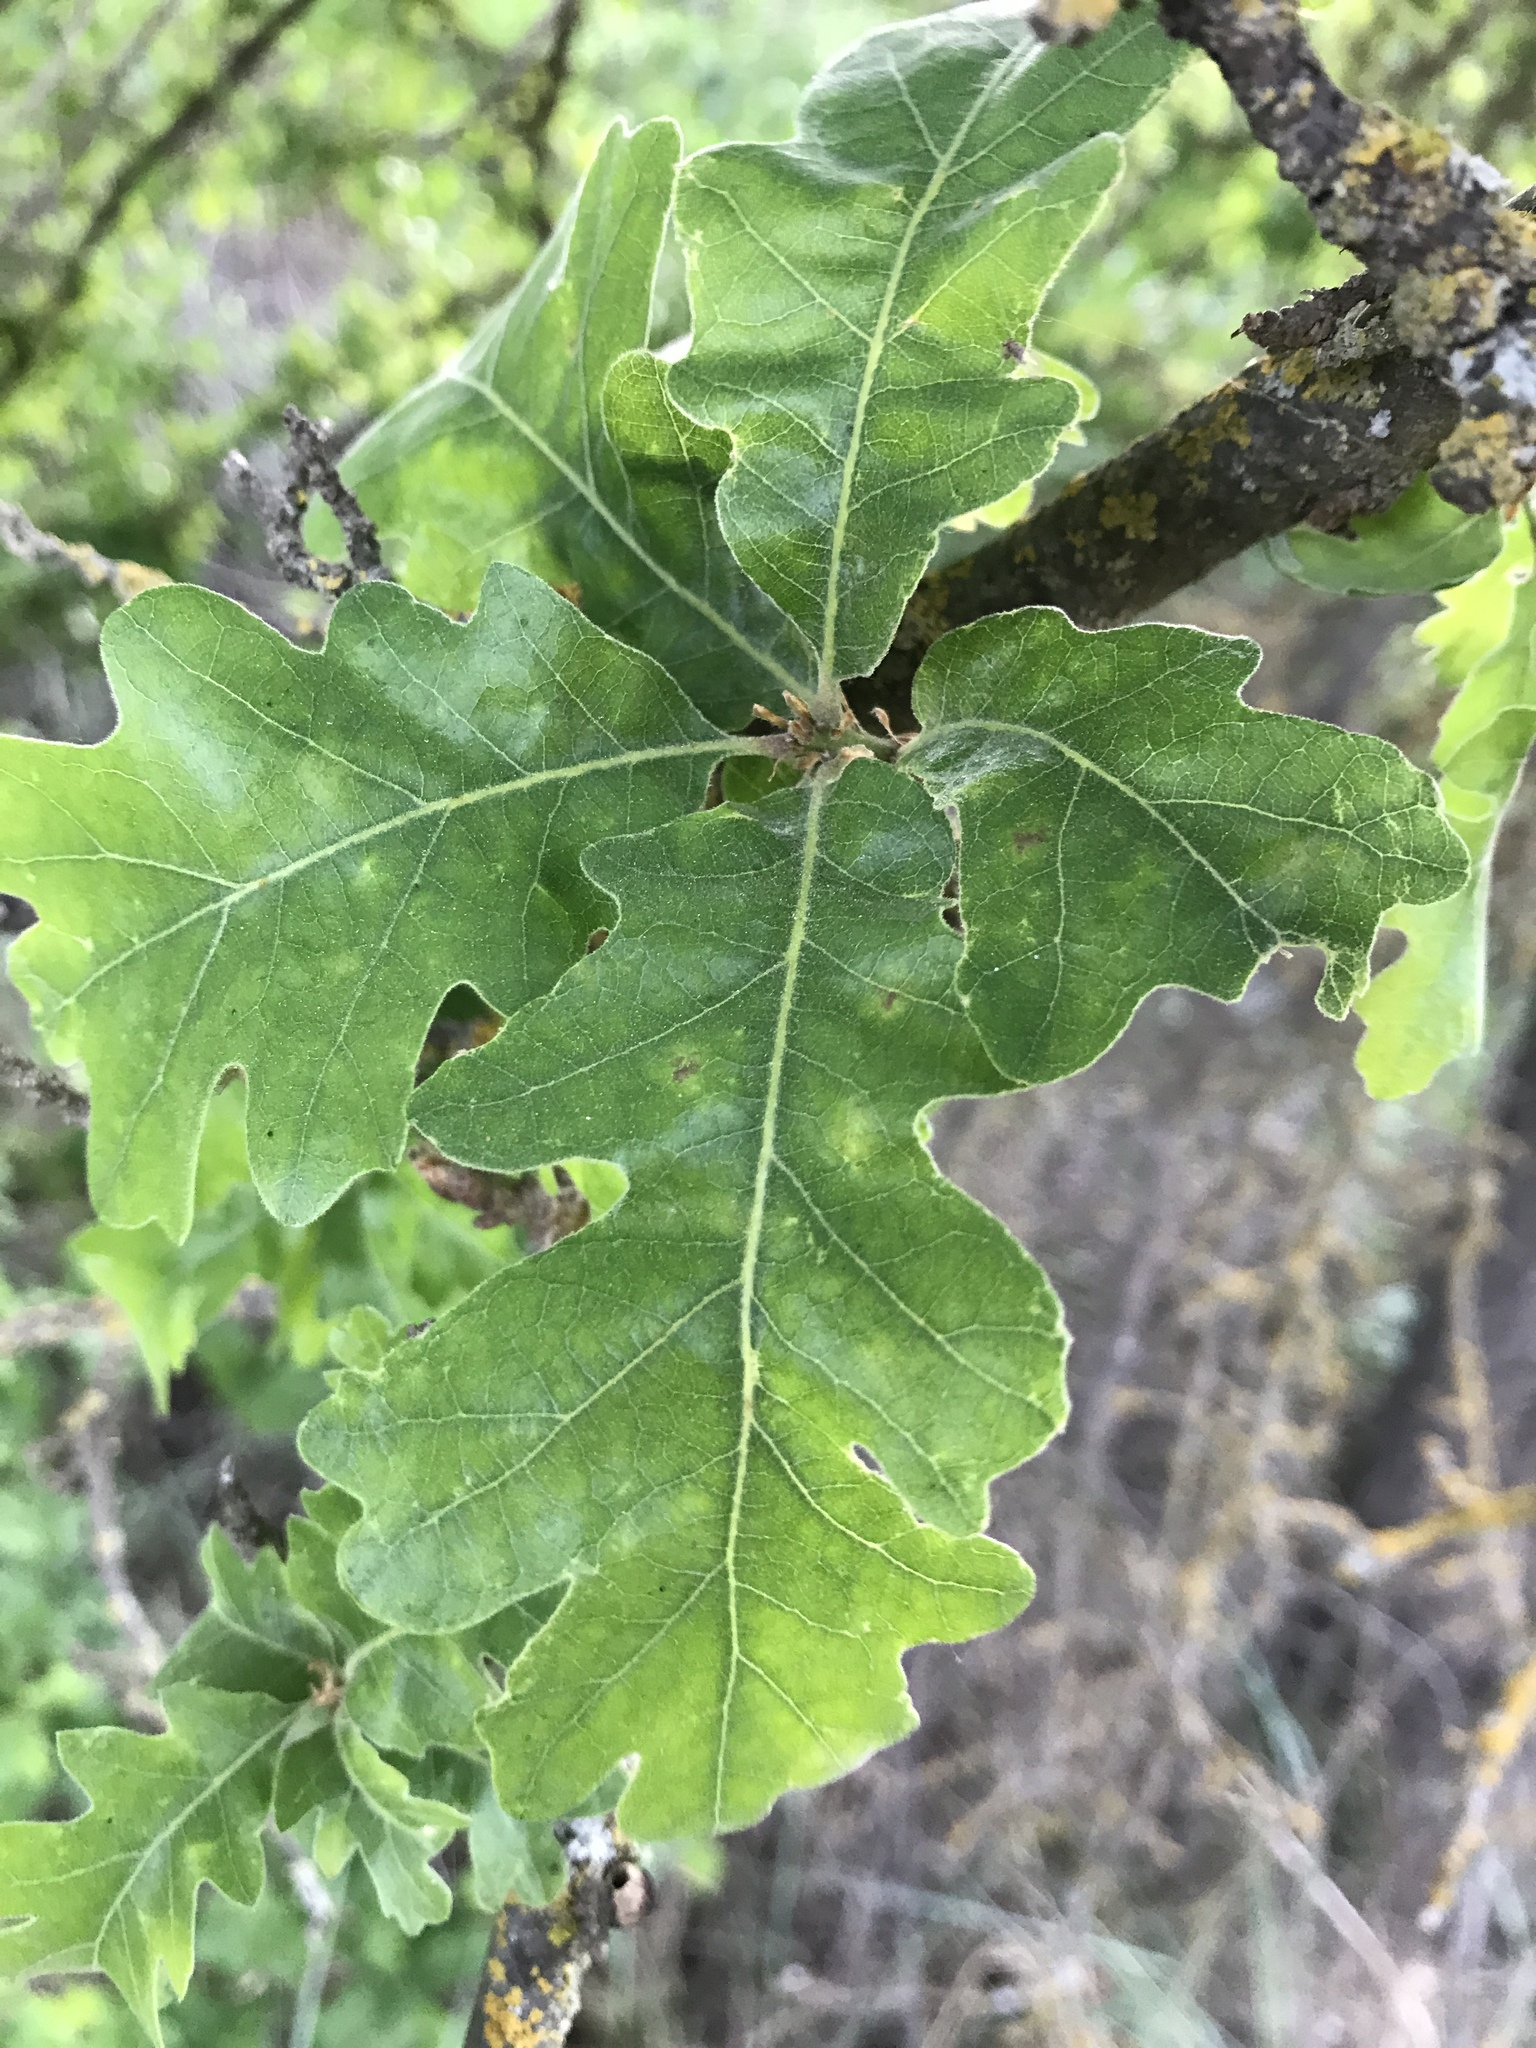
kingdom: Plantae
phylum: Tracheophyta
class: Magnoliopsida
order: Fagales
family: Fagaceae
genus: Quercus
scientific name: Quercus lobata
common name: Valley oak
